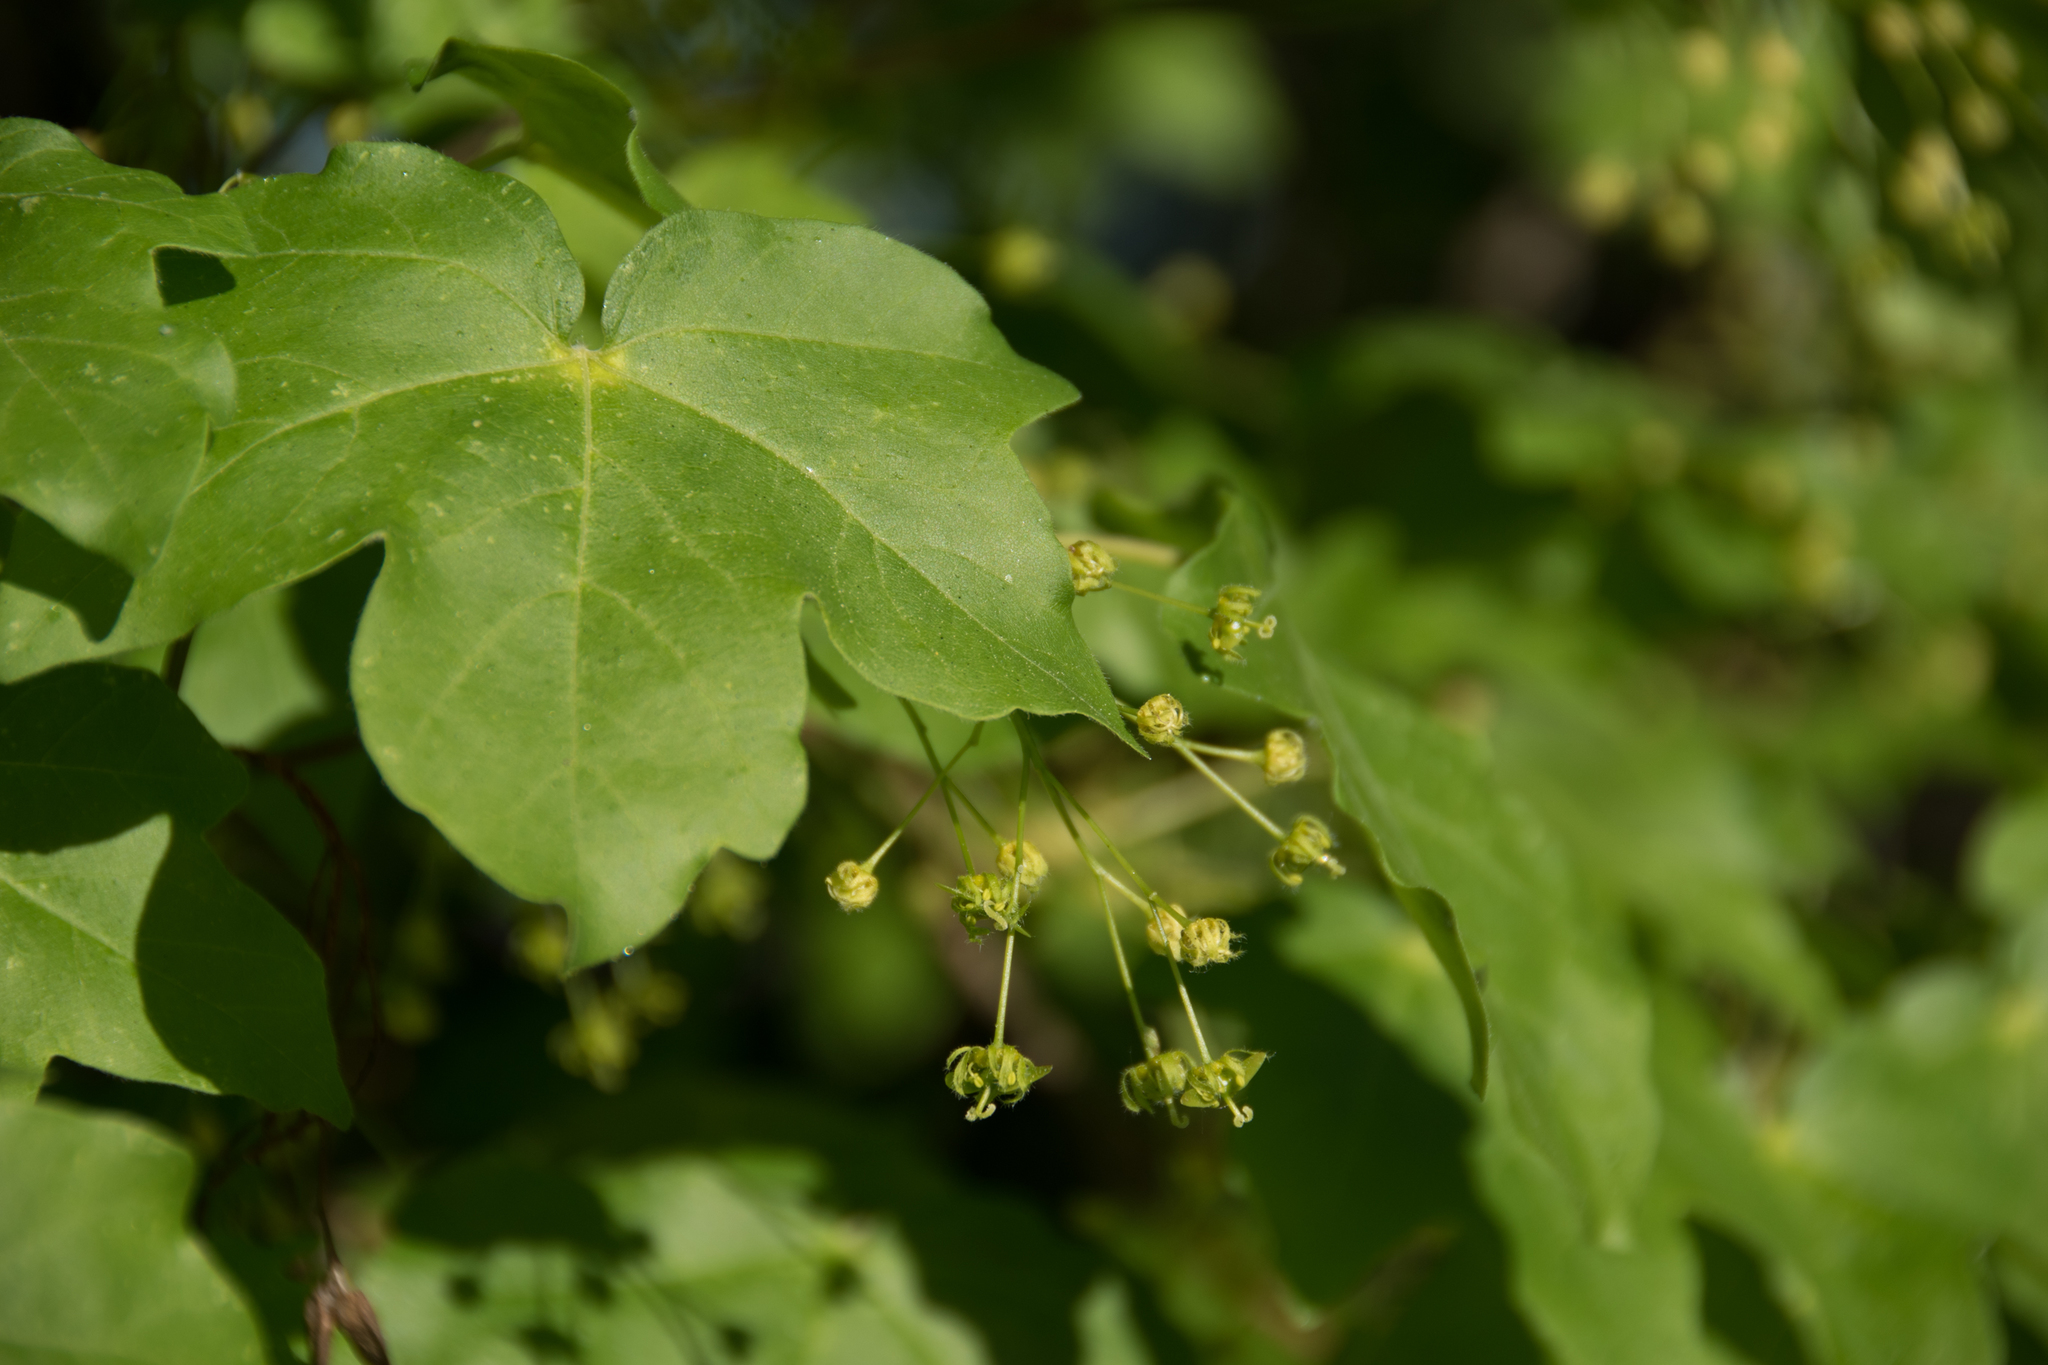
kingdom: Plantae
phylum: Tracheophyta
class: Magnoliopsida
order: Sapindales
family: Sapindaceae
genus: Acer
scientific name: Acer campestre
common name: Field maple
